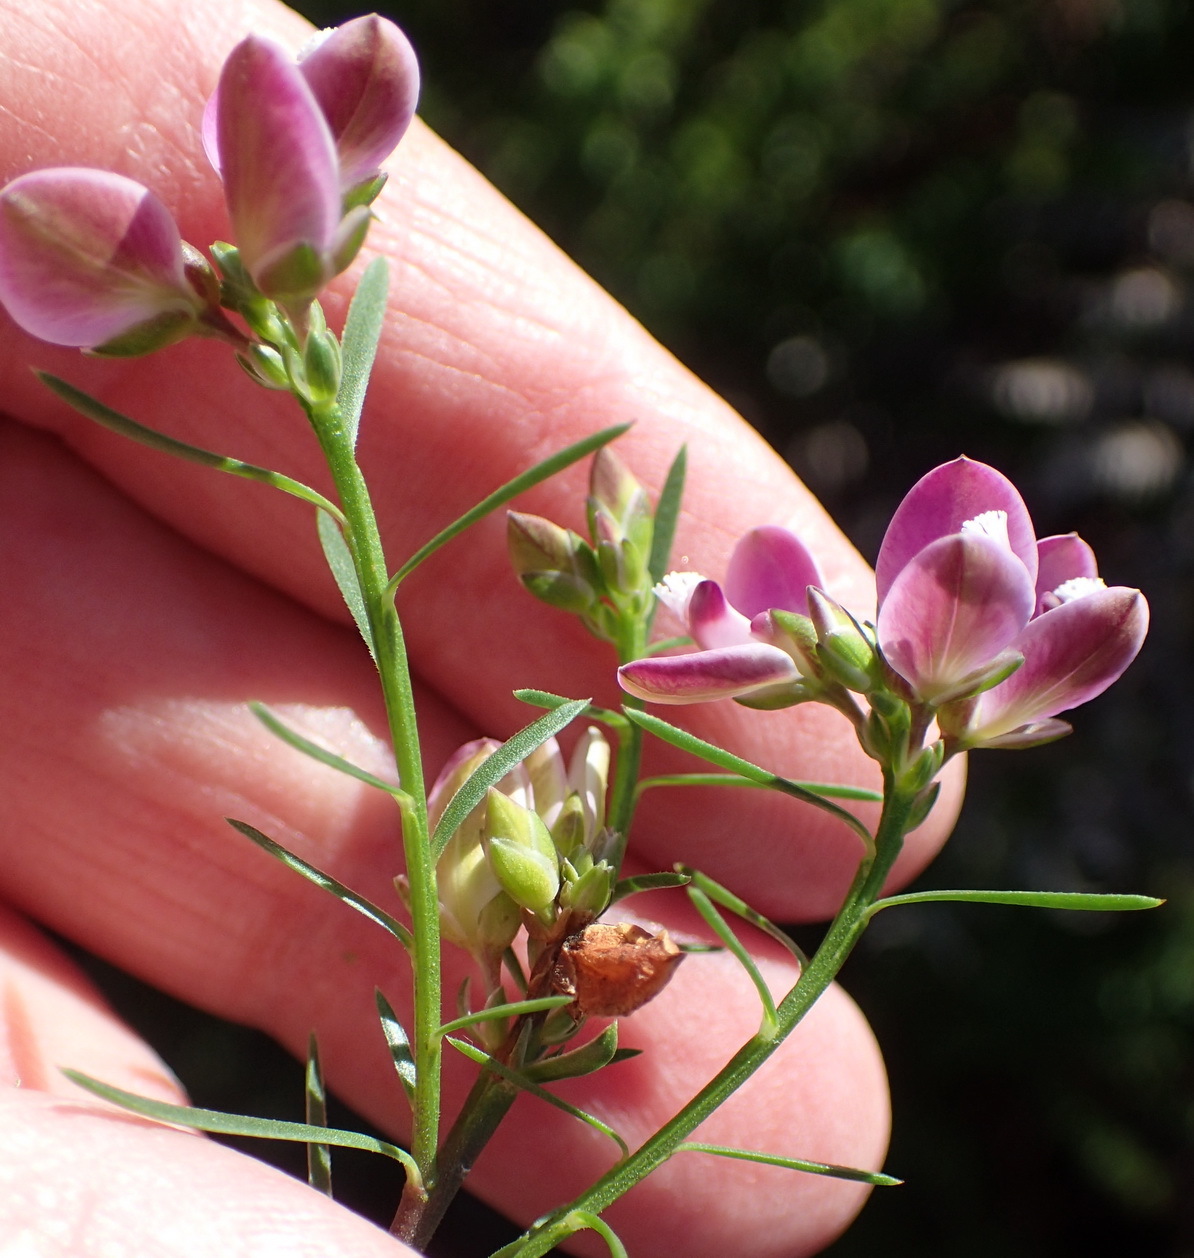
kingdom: Plantae
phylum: Tracheophyta
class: Magnoliopsida
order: Fabales
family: Polygalaceae
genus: Polygala
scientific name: Polygala ericifolia
